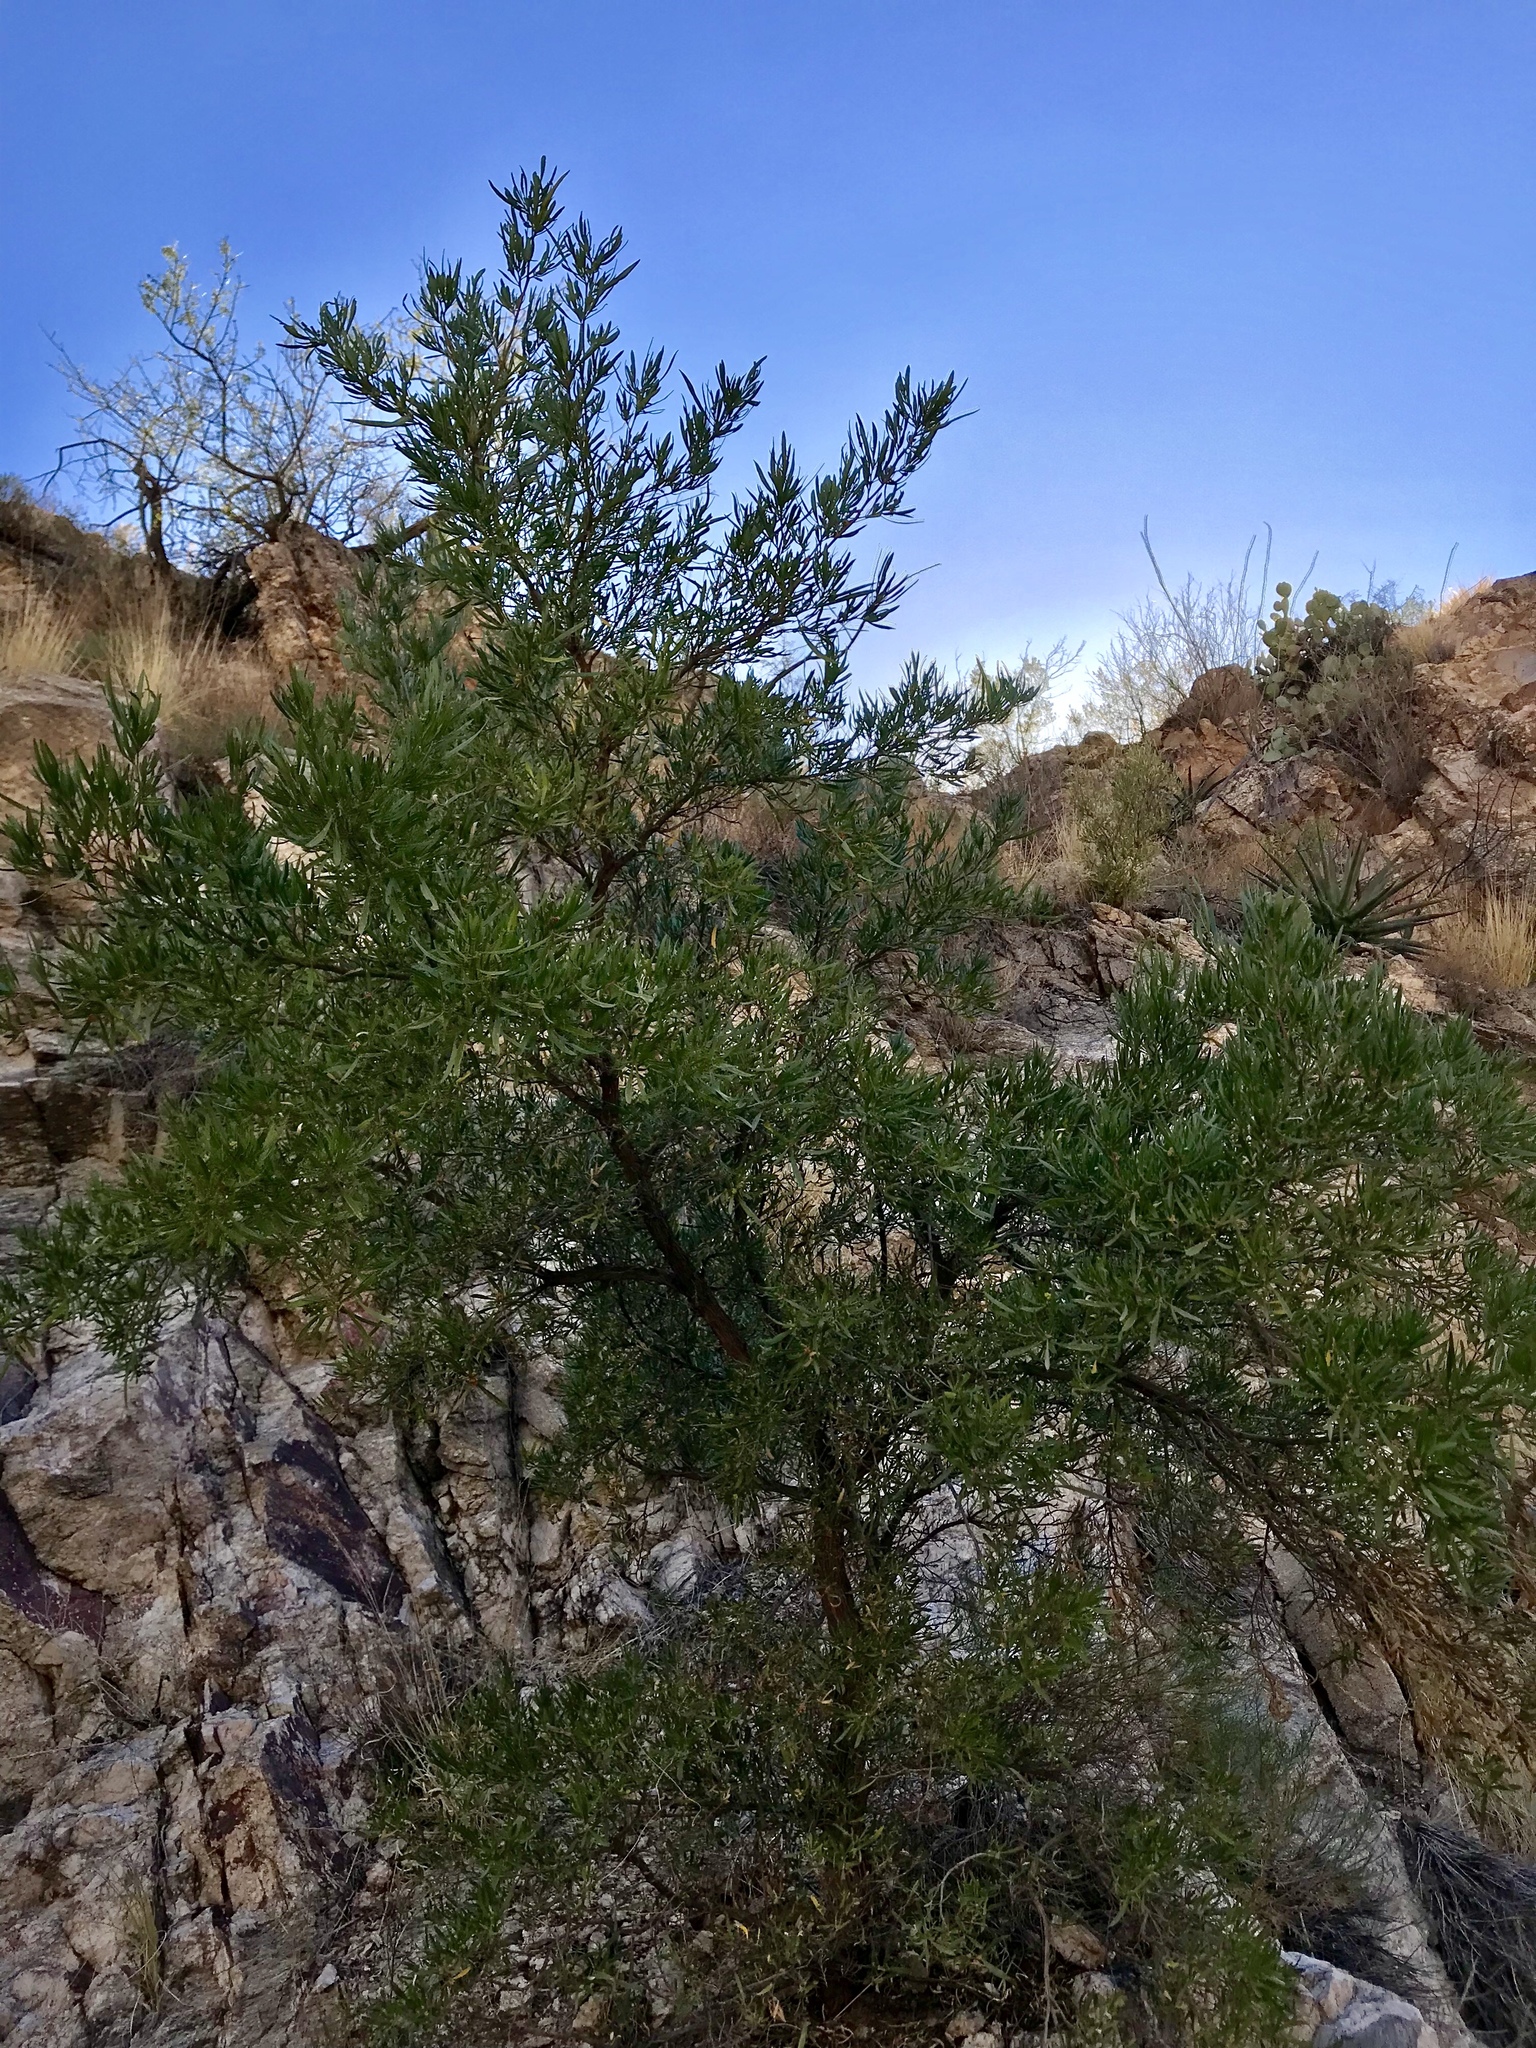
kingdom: Plantae
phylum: Tracheophyta
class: Magnoliopsida
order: Sapindales
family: Sapindaceae
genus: Dodonaea
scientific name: Dodonaea viscosa
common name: Hopbush
